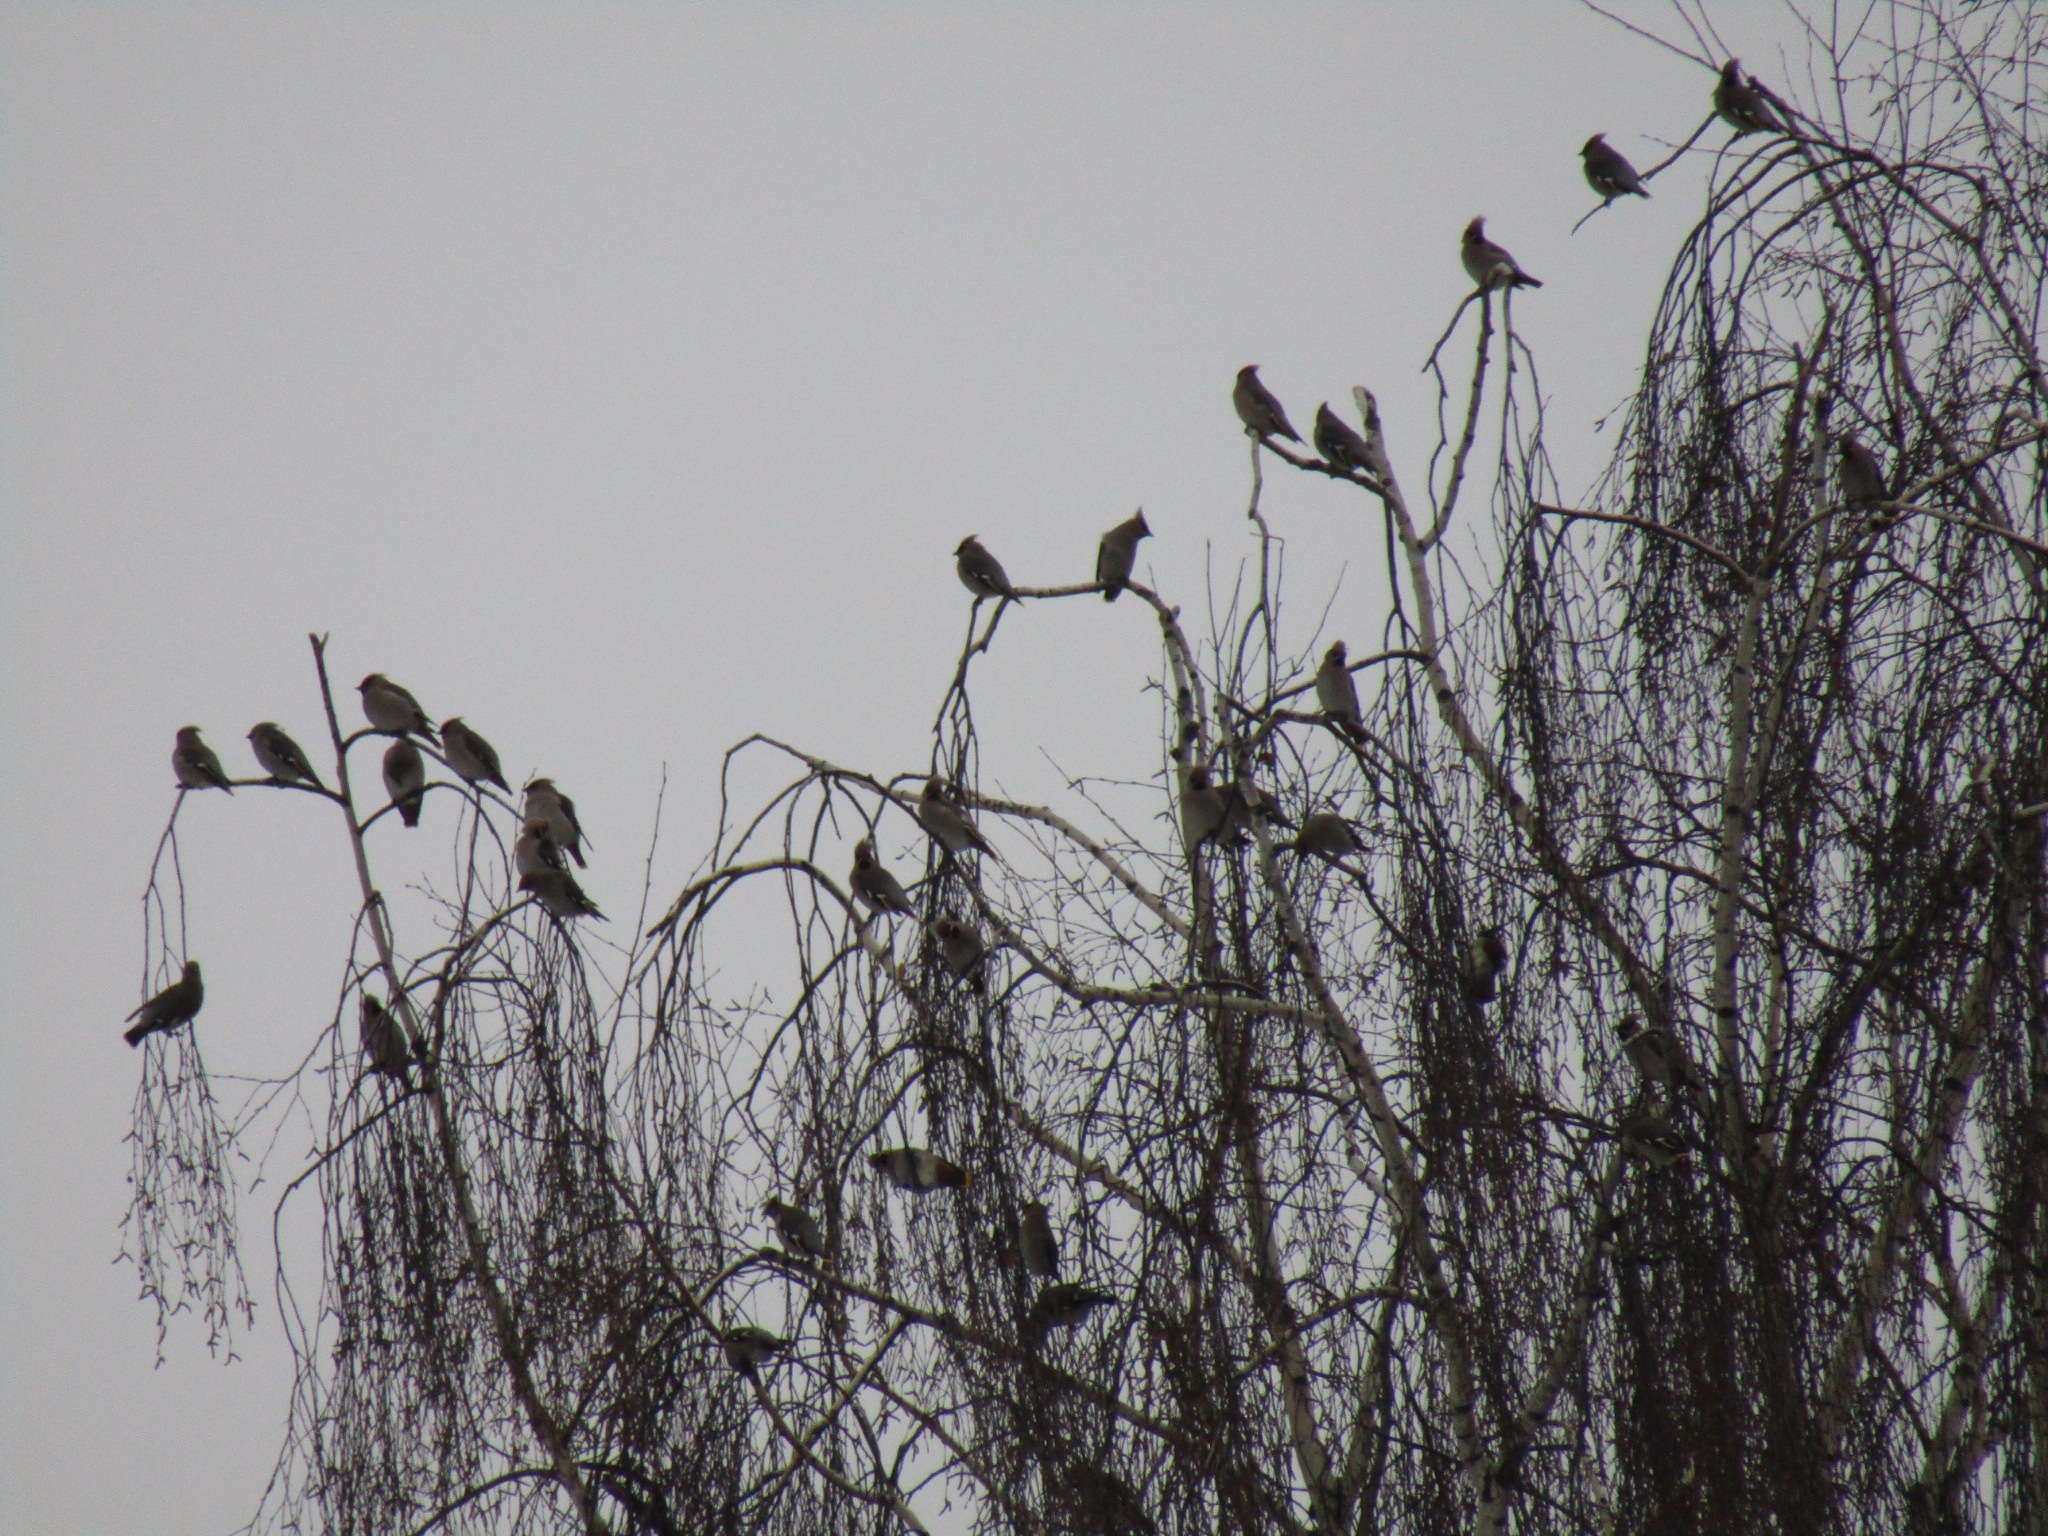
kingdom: Animalia
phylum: Chordata
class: Aves
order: Passeriformes
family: Bombycillidae
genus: Bombycilla
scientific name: Bombycilla garrulus
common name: Bohemian waxwing
